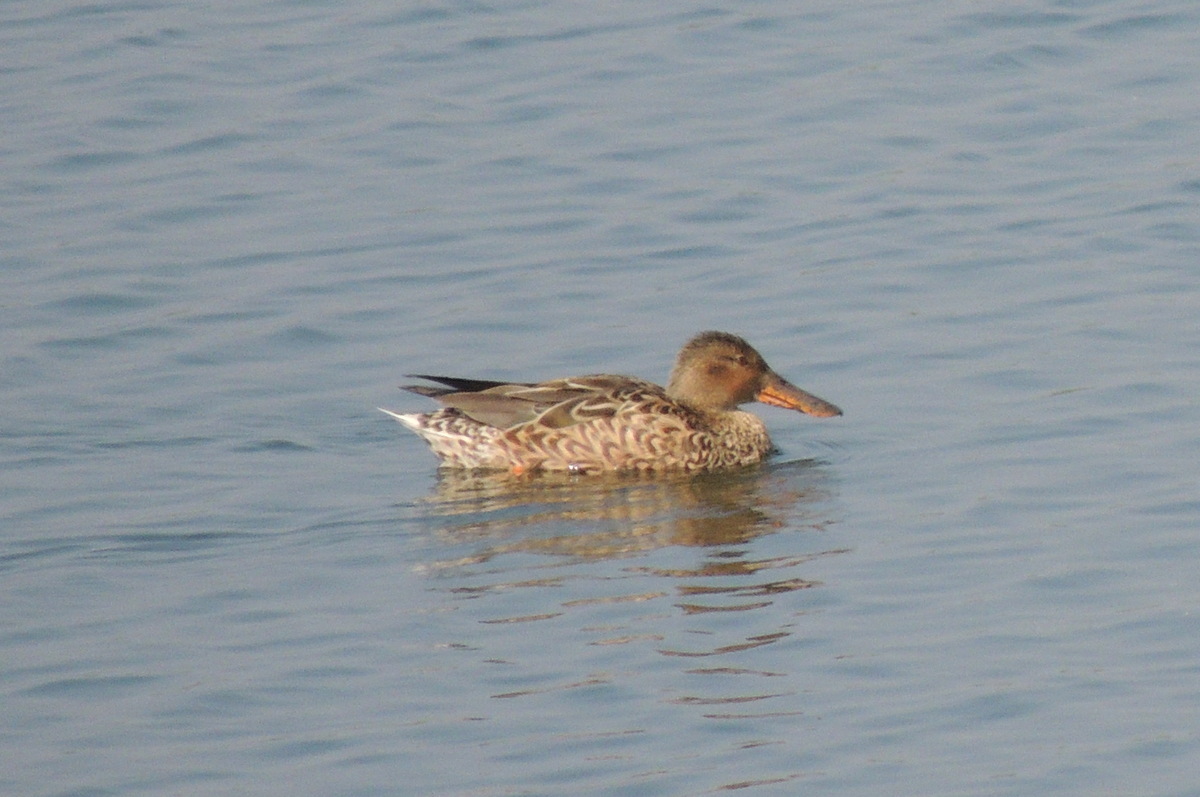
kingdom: Animalia
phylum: Chordata
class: Aves
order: Anseriformes
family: Anatidae
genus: Spatula
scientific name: Spatula clypeata
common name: Northern shoveler
